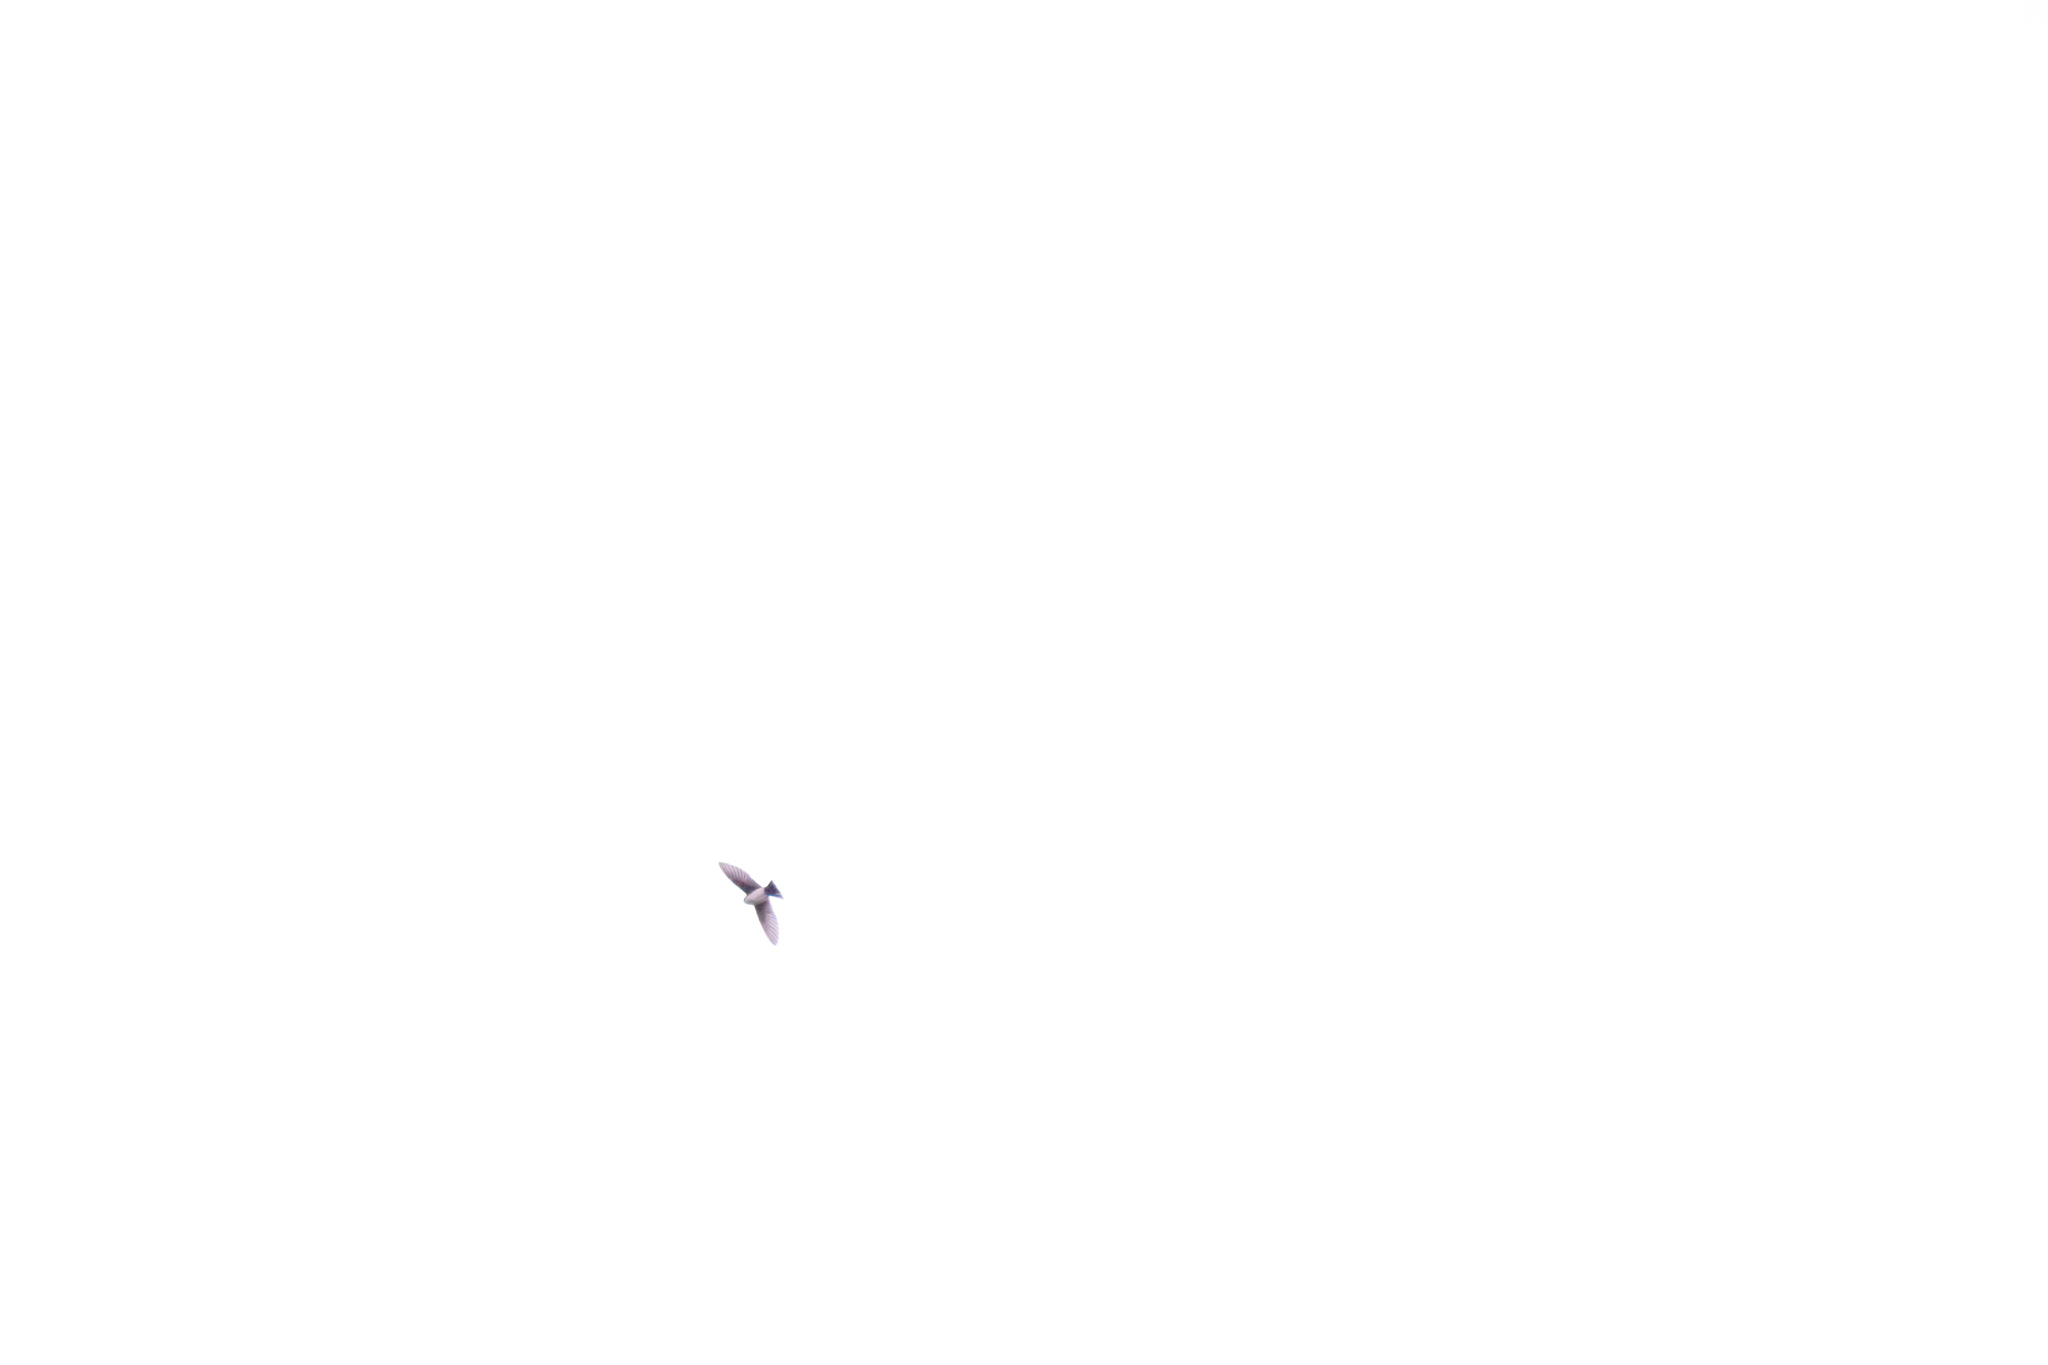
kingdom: Animalia
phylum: Chordata
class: Aves
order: Passeriformes
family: Hirundinidae
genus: Notiochelidon
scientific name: Notiochelidon cyanoleuca
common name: Blue-and-white swallow
